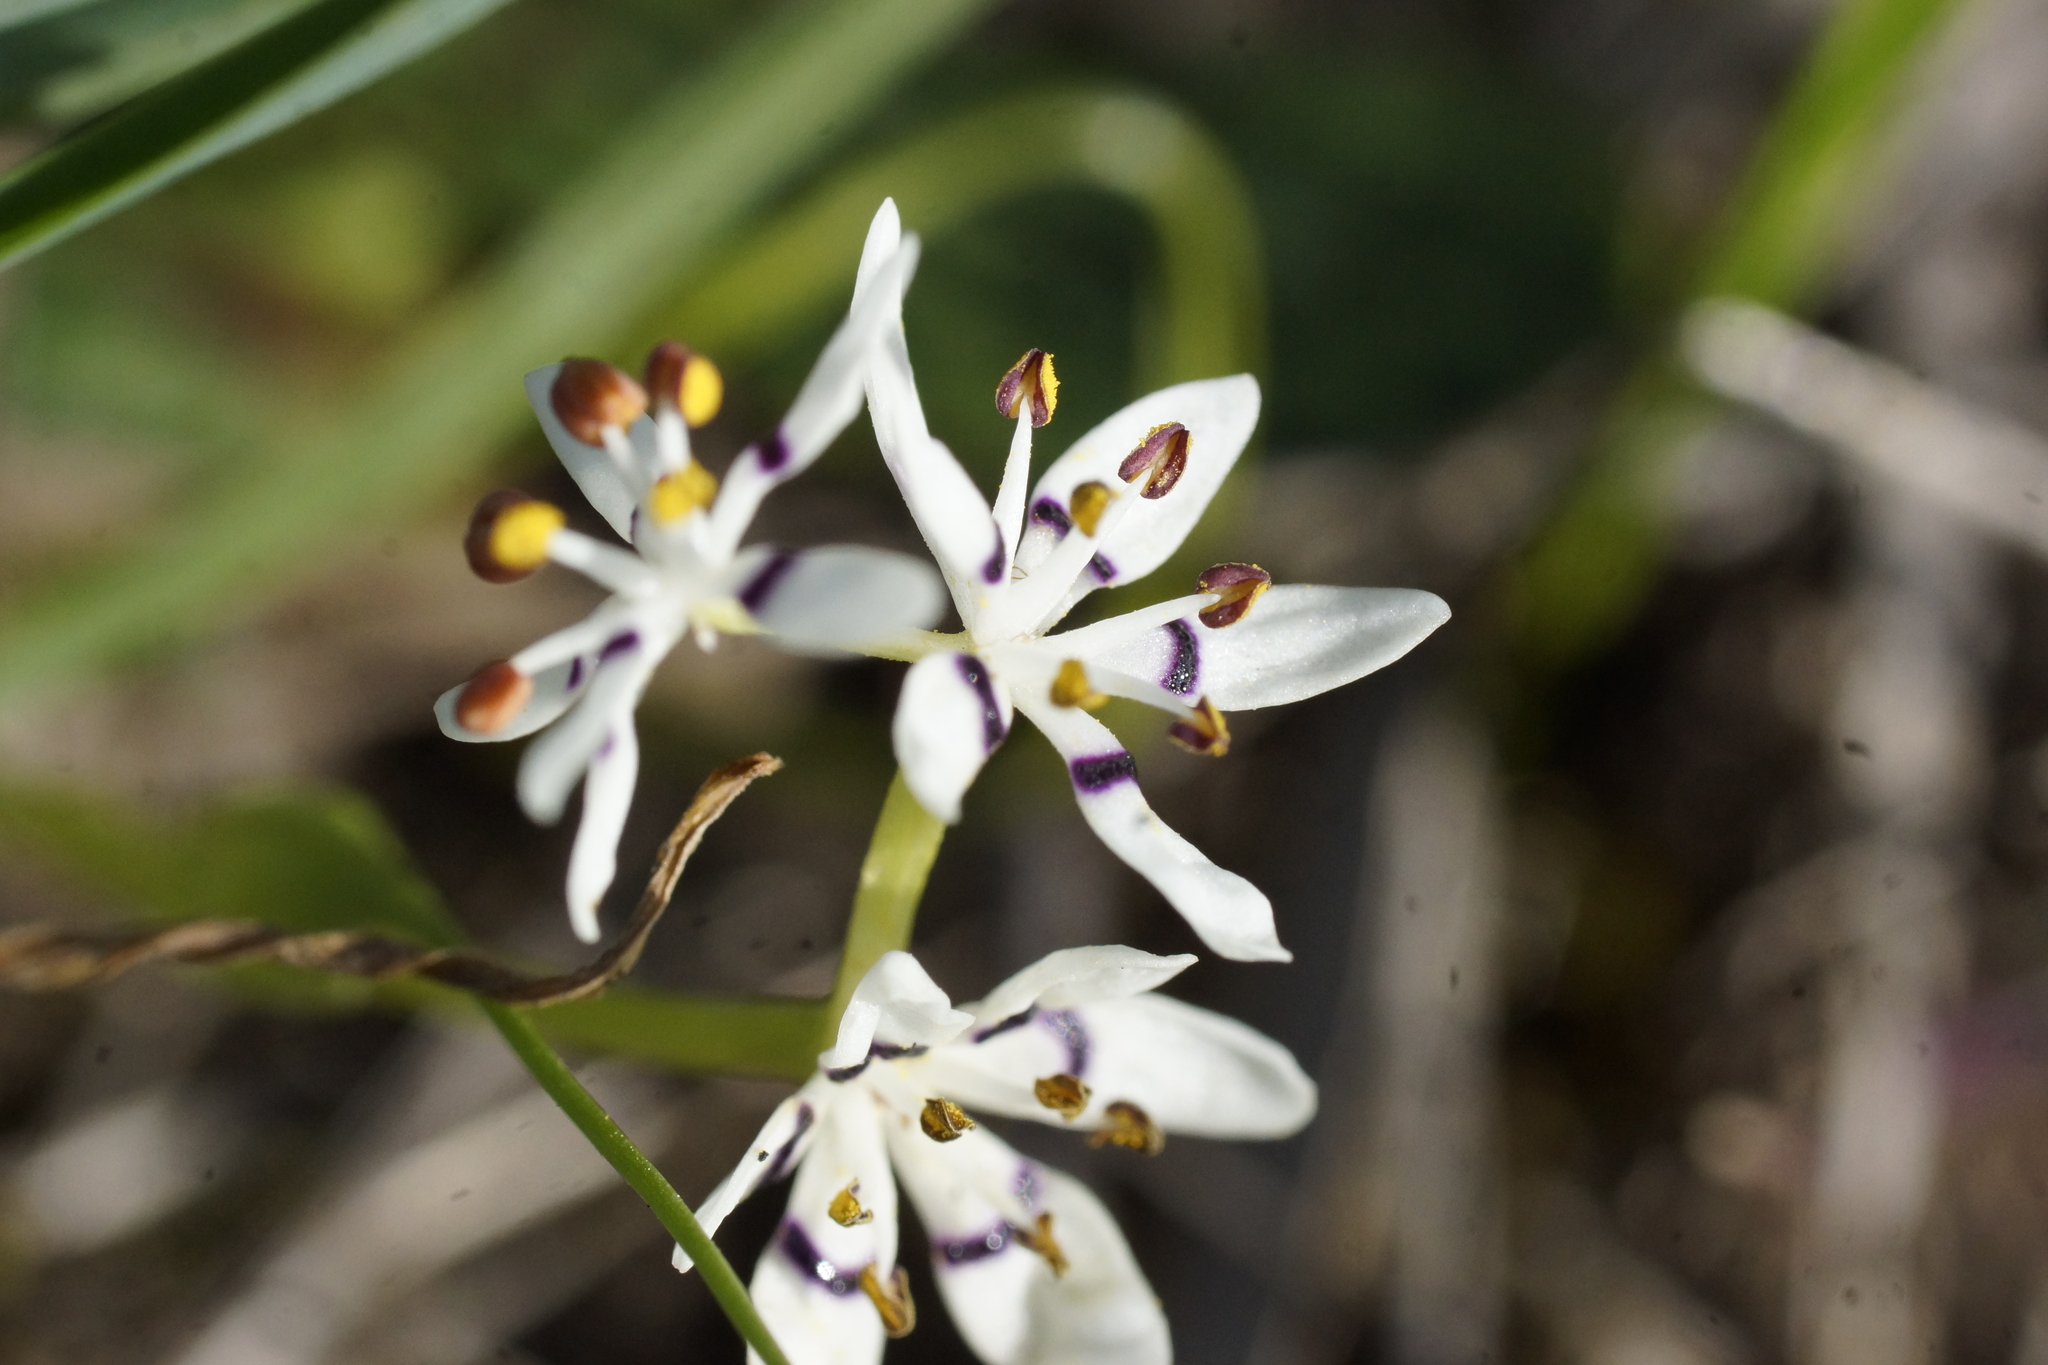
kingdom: Plantae
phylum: Tracheophyta
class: Liliopsida
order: Liliales
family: Colchicaceae
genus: Wurmbea
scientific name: Wurmbea dioica
